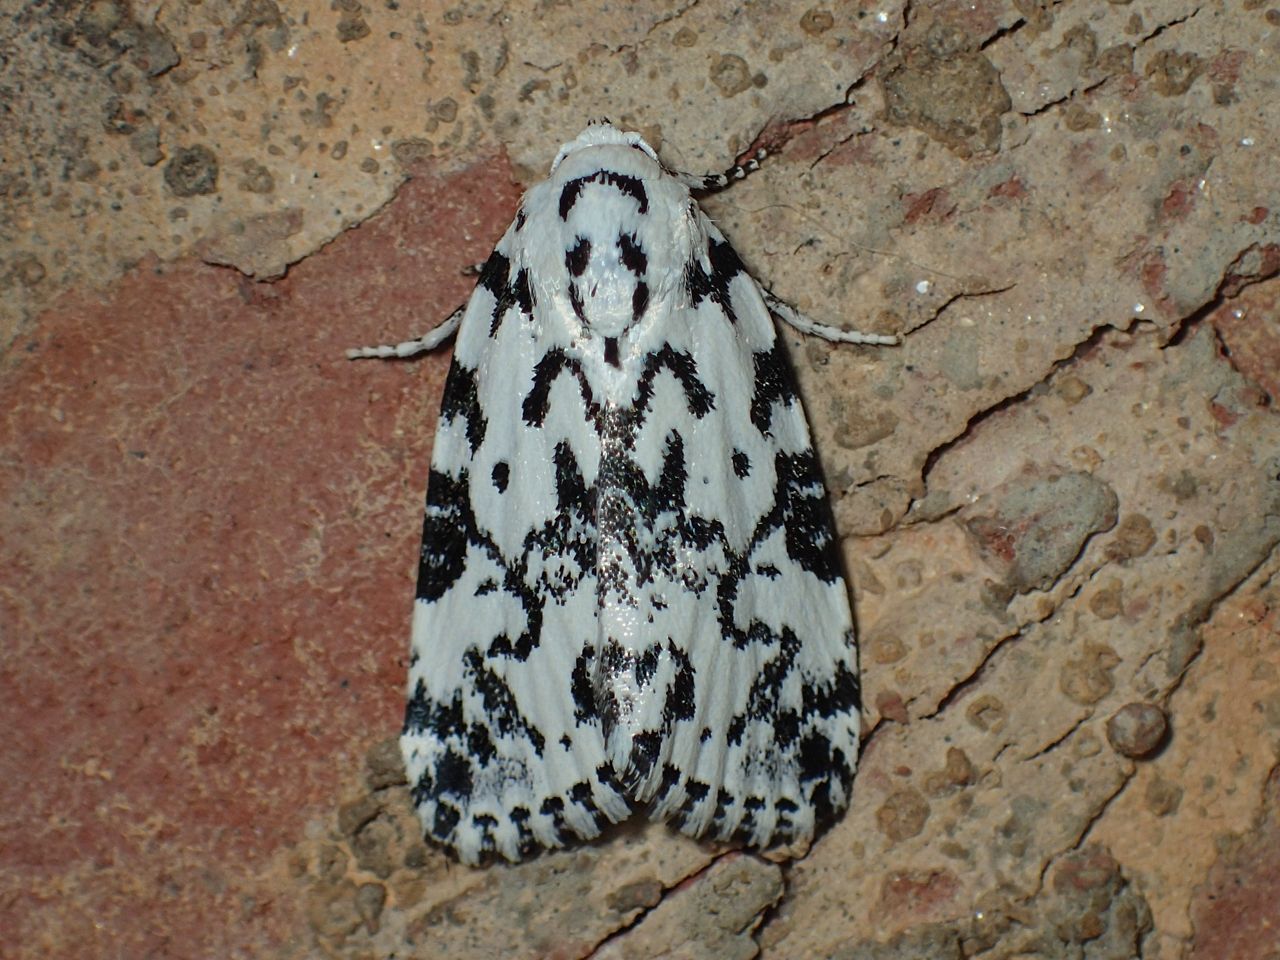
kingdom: Animalia
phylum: Arthropoda
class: Insecta
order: Lepidoptera
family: Noctuidae
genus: Polygrammate
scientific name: Polygrammate hebraeicum
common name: Hebrew moth
